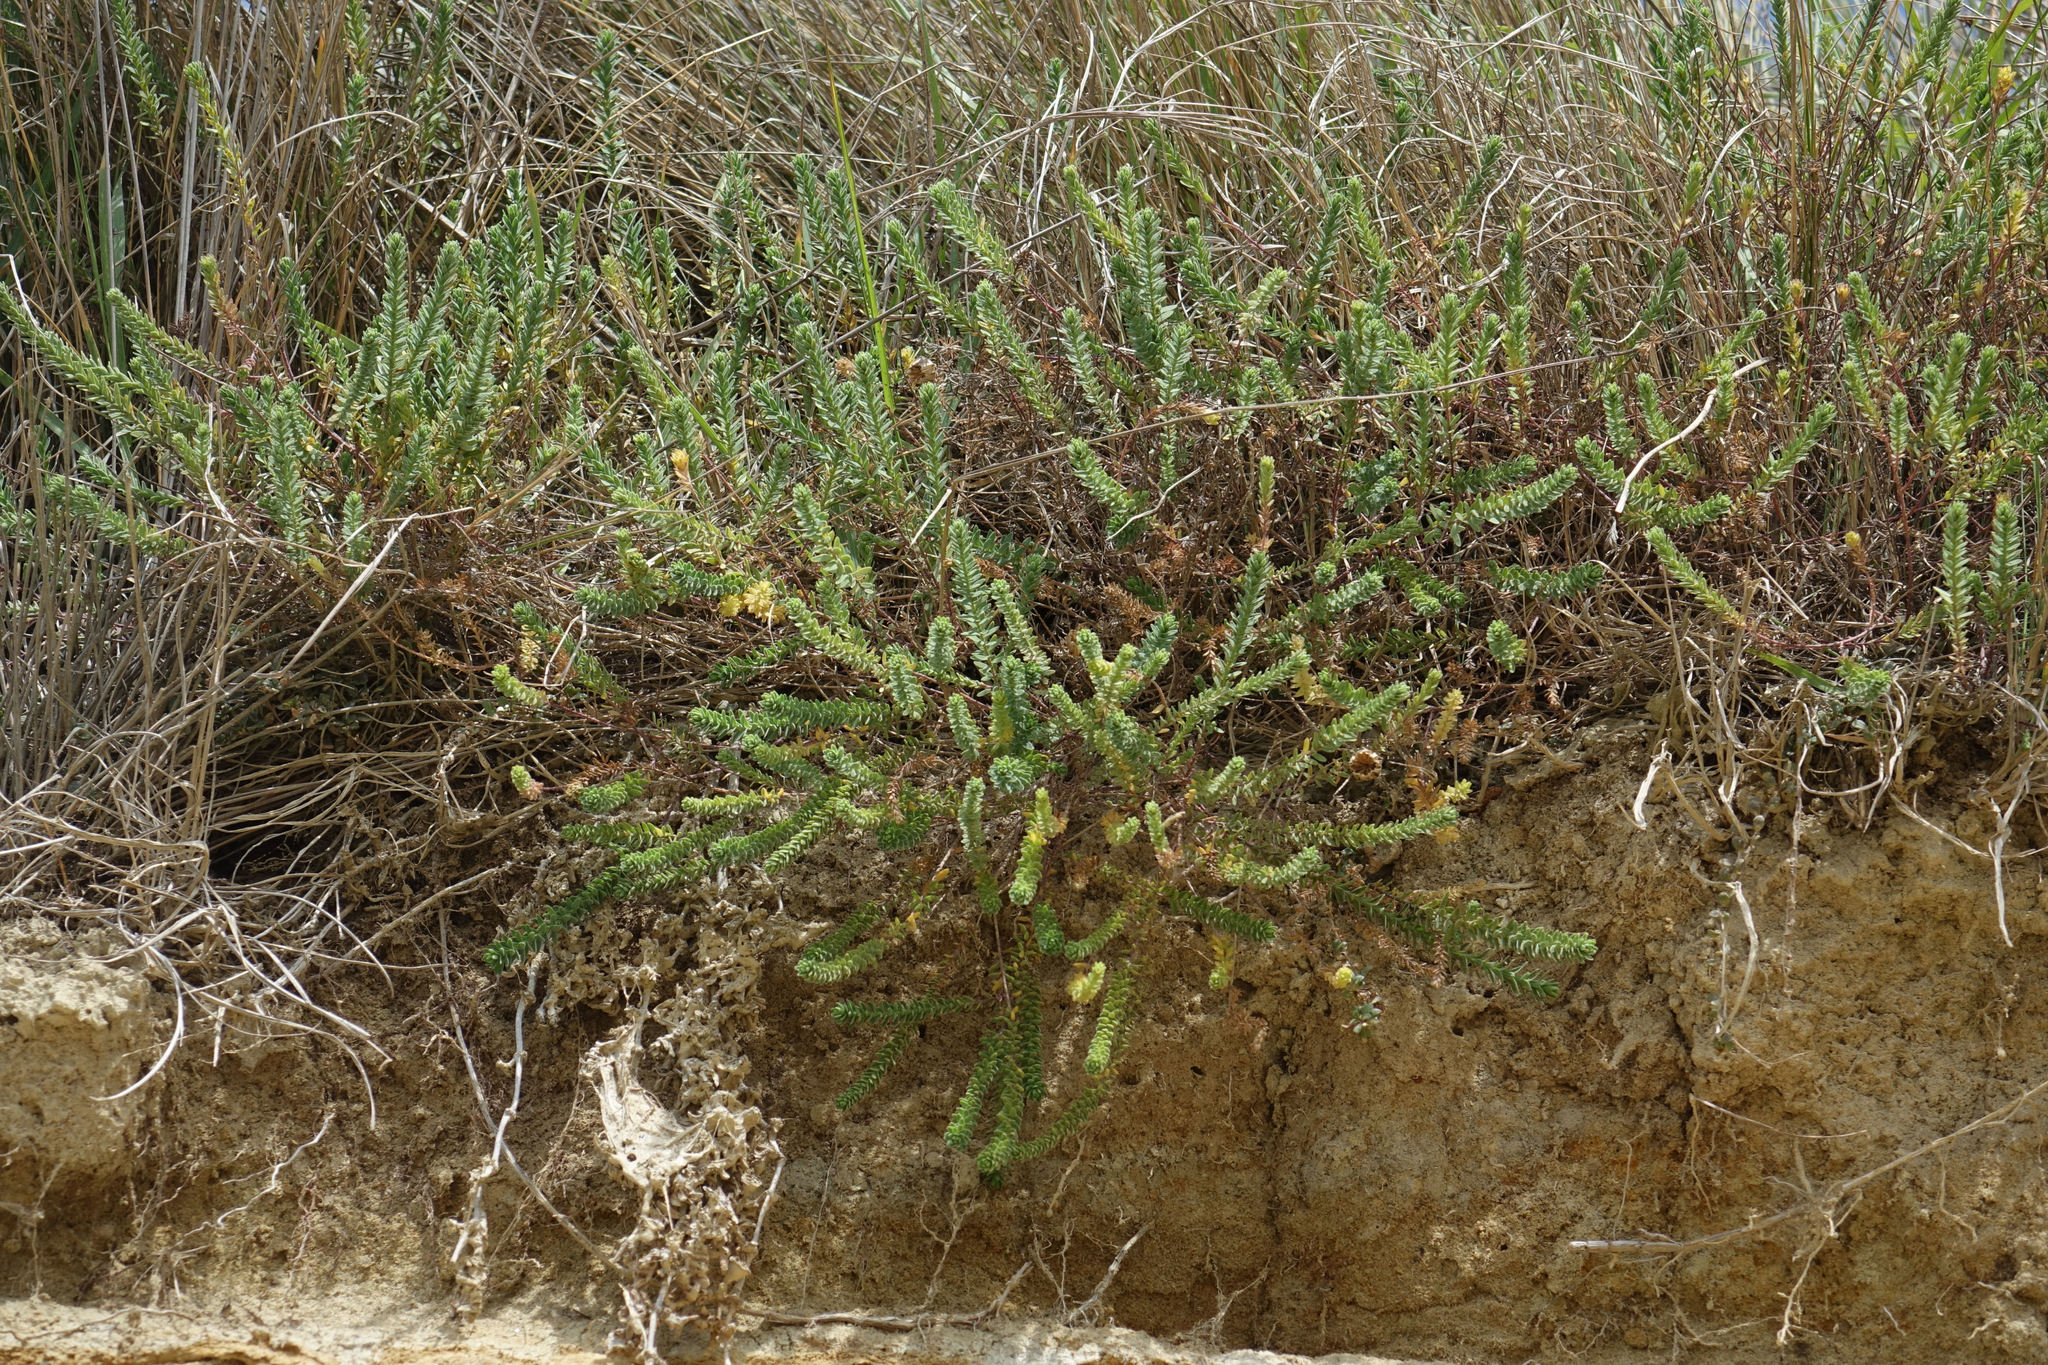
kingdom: Plantae
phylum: Tracheophyta
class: Magnoliopsida
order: Malpighiales
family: Linaceae
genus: Linum
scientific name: Linum monogynum
